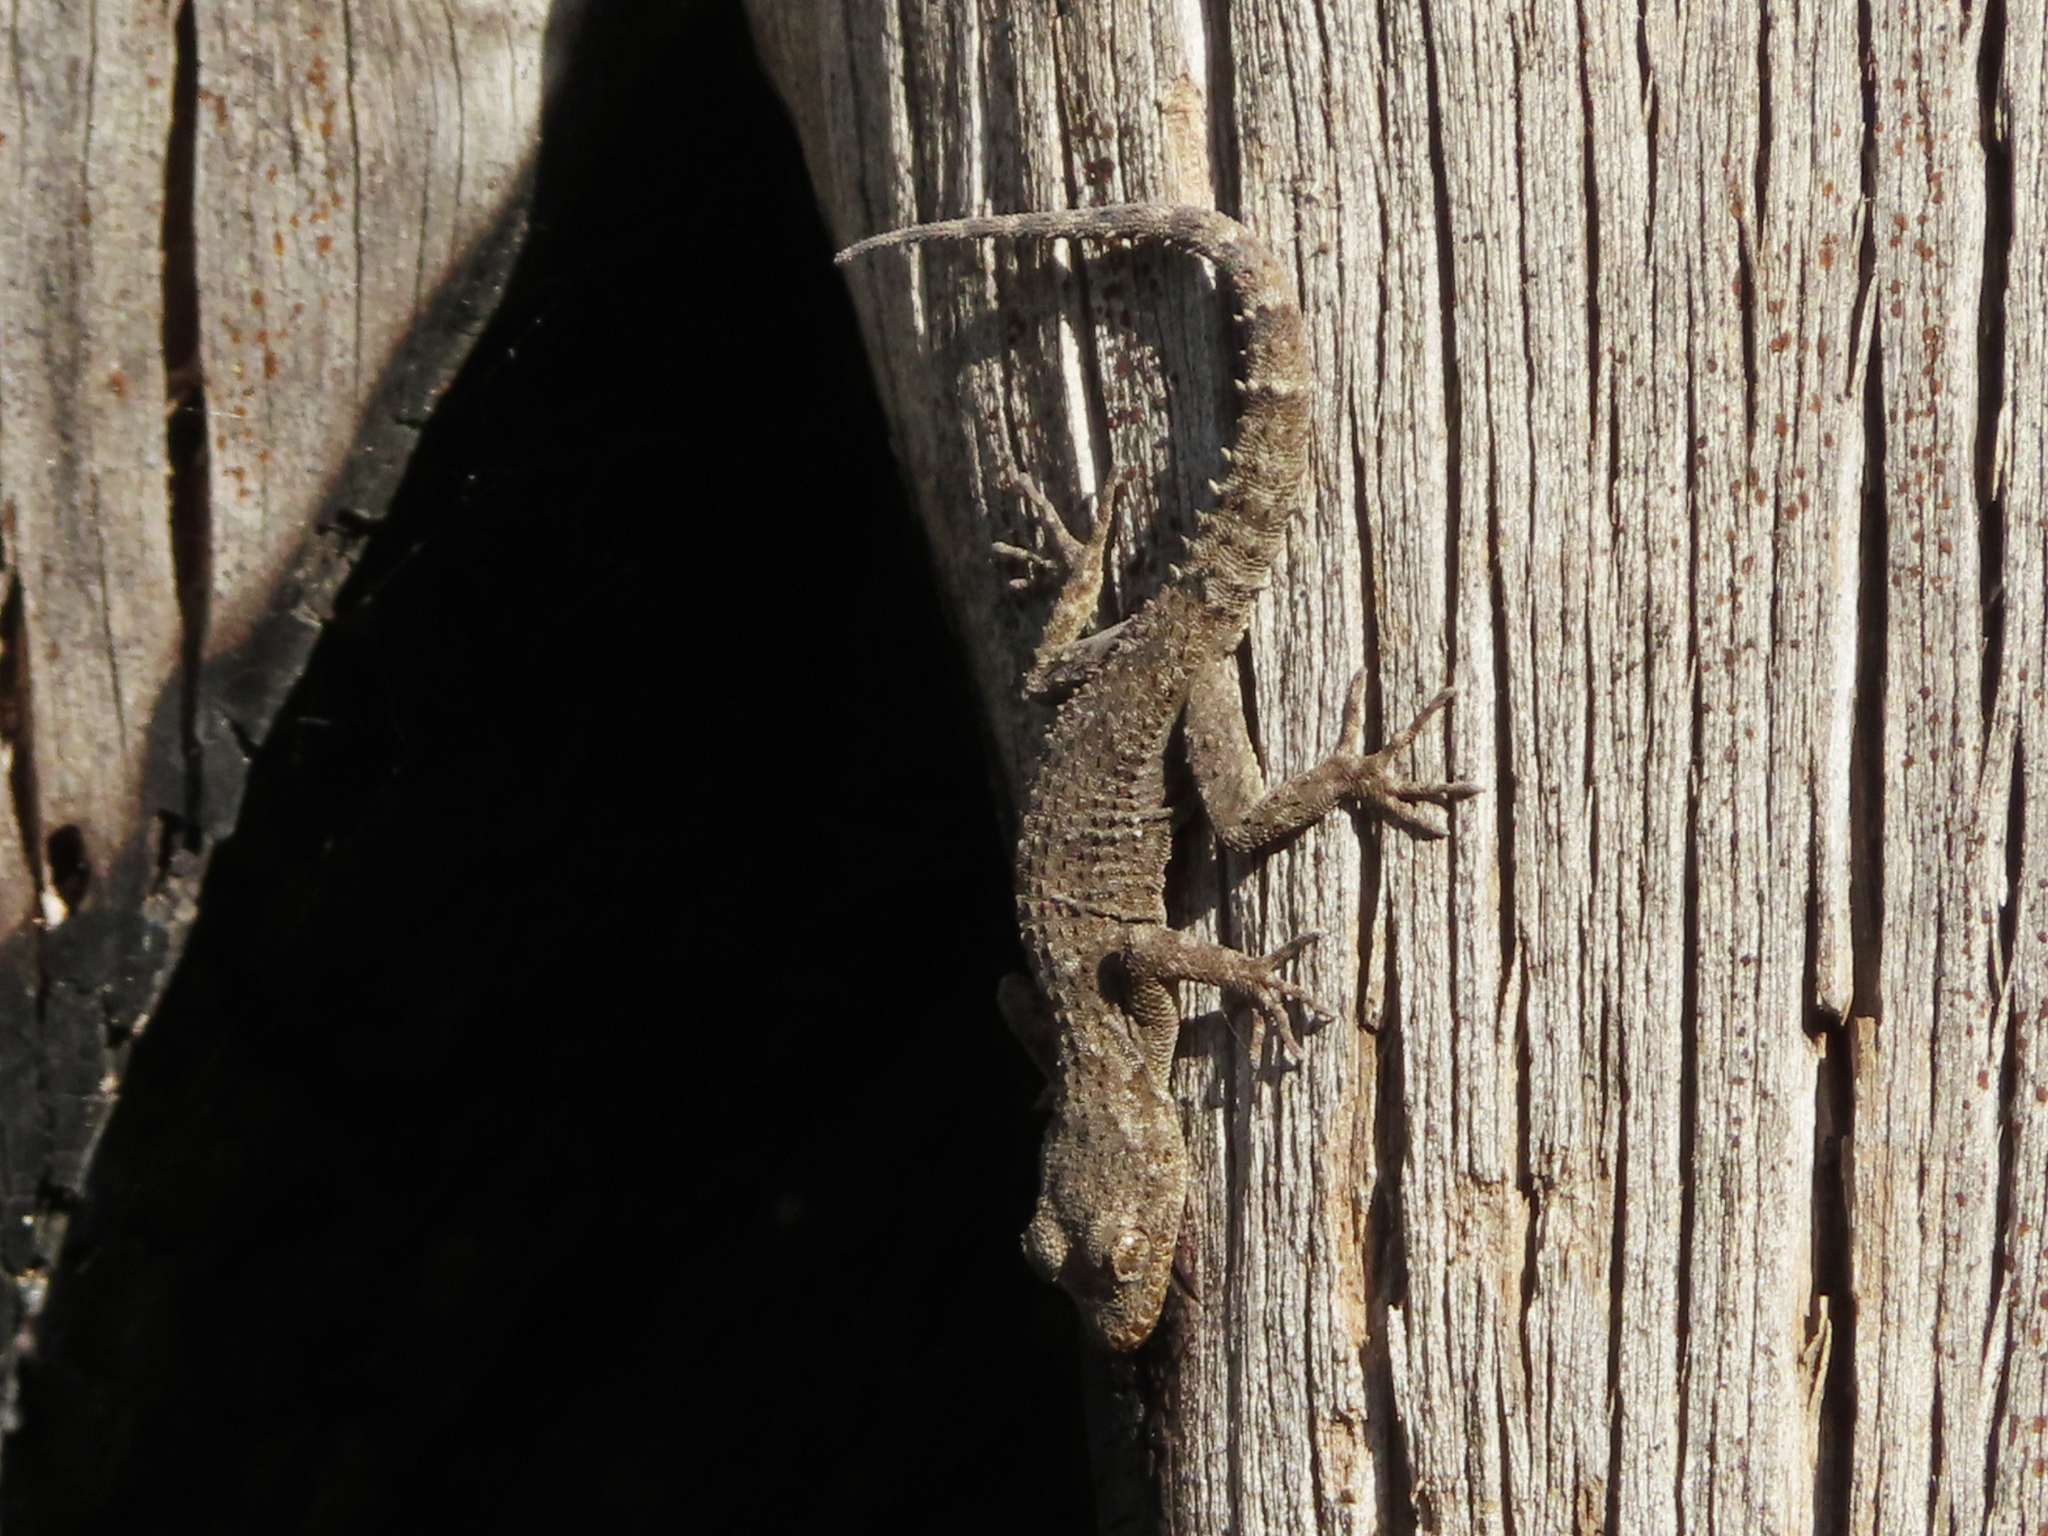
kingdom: Animalia
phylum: Chordata
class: Squamata
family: Gekkonidae
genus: Mediodactylus
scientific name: Mediodactylus kotschyi
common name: Kotschy's gecko
